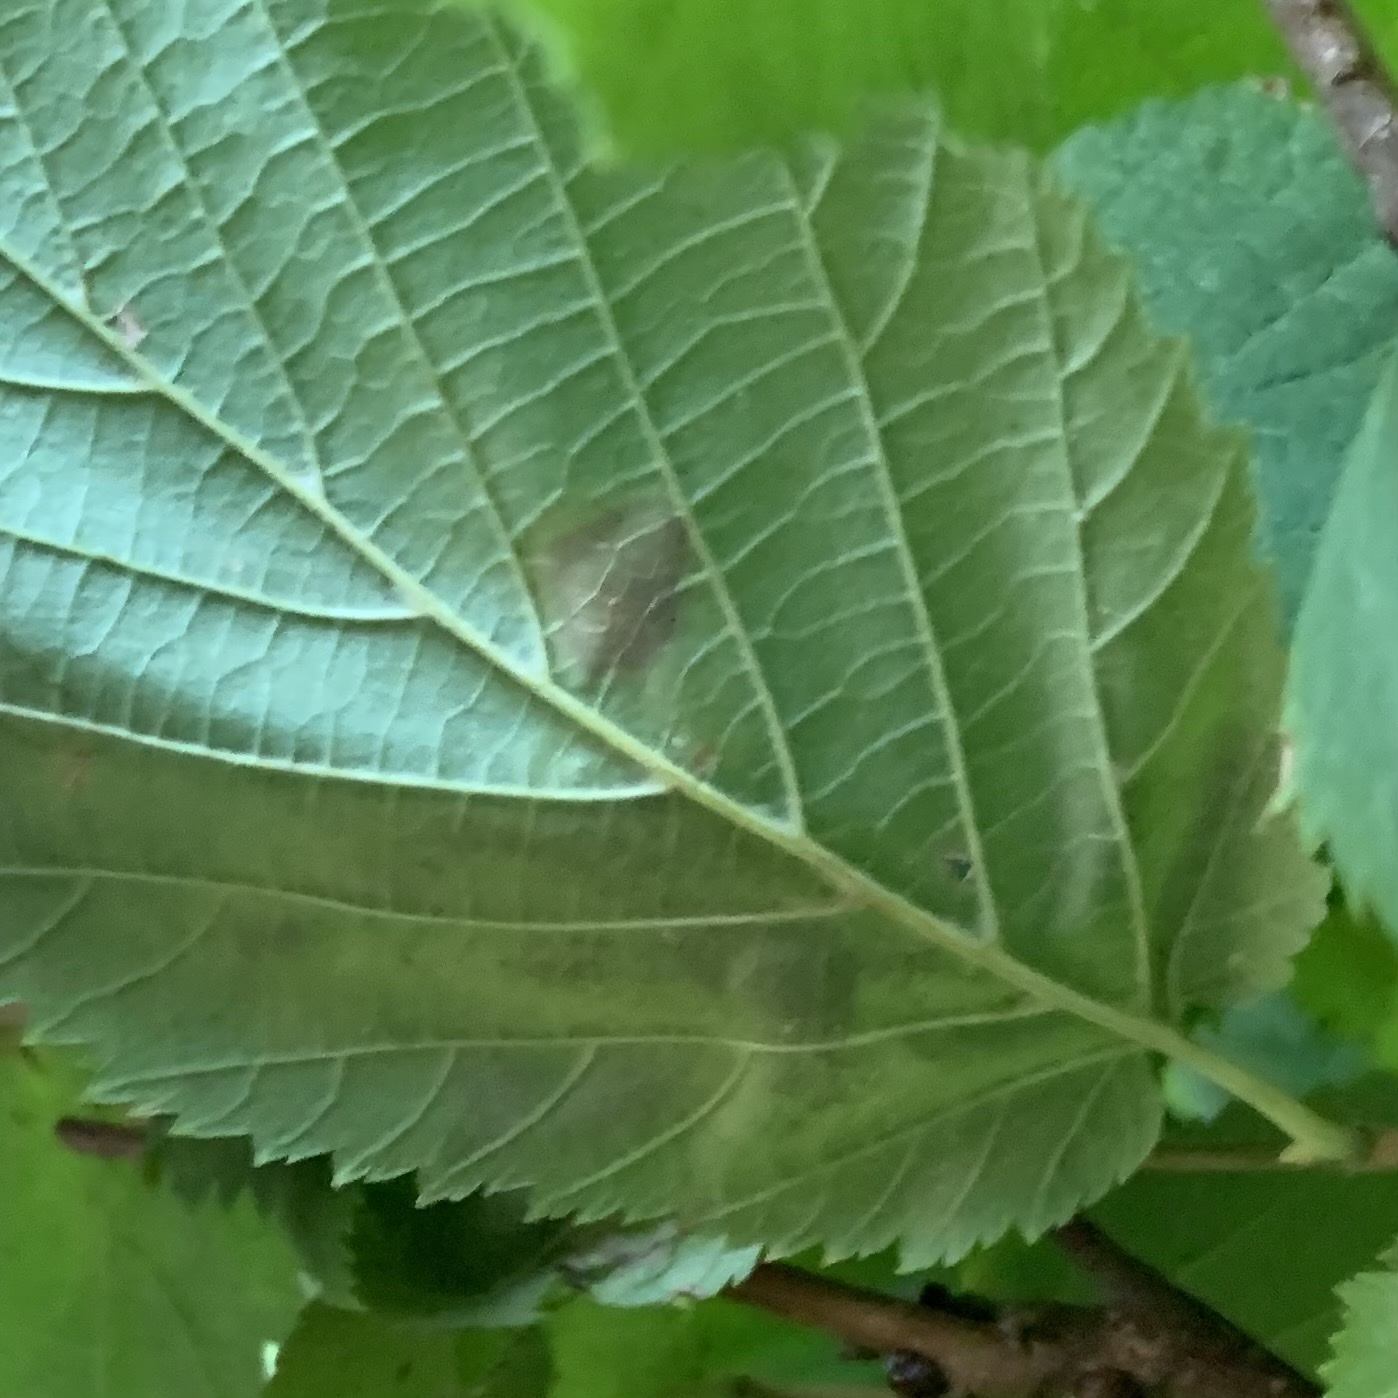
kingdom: Animalia
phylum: Arthropoda
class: Insecta
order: Lepidoptera
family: Gracillariidae
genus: Cameraria
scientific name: Cameraria corylisella
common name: Hazel blotchminer
